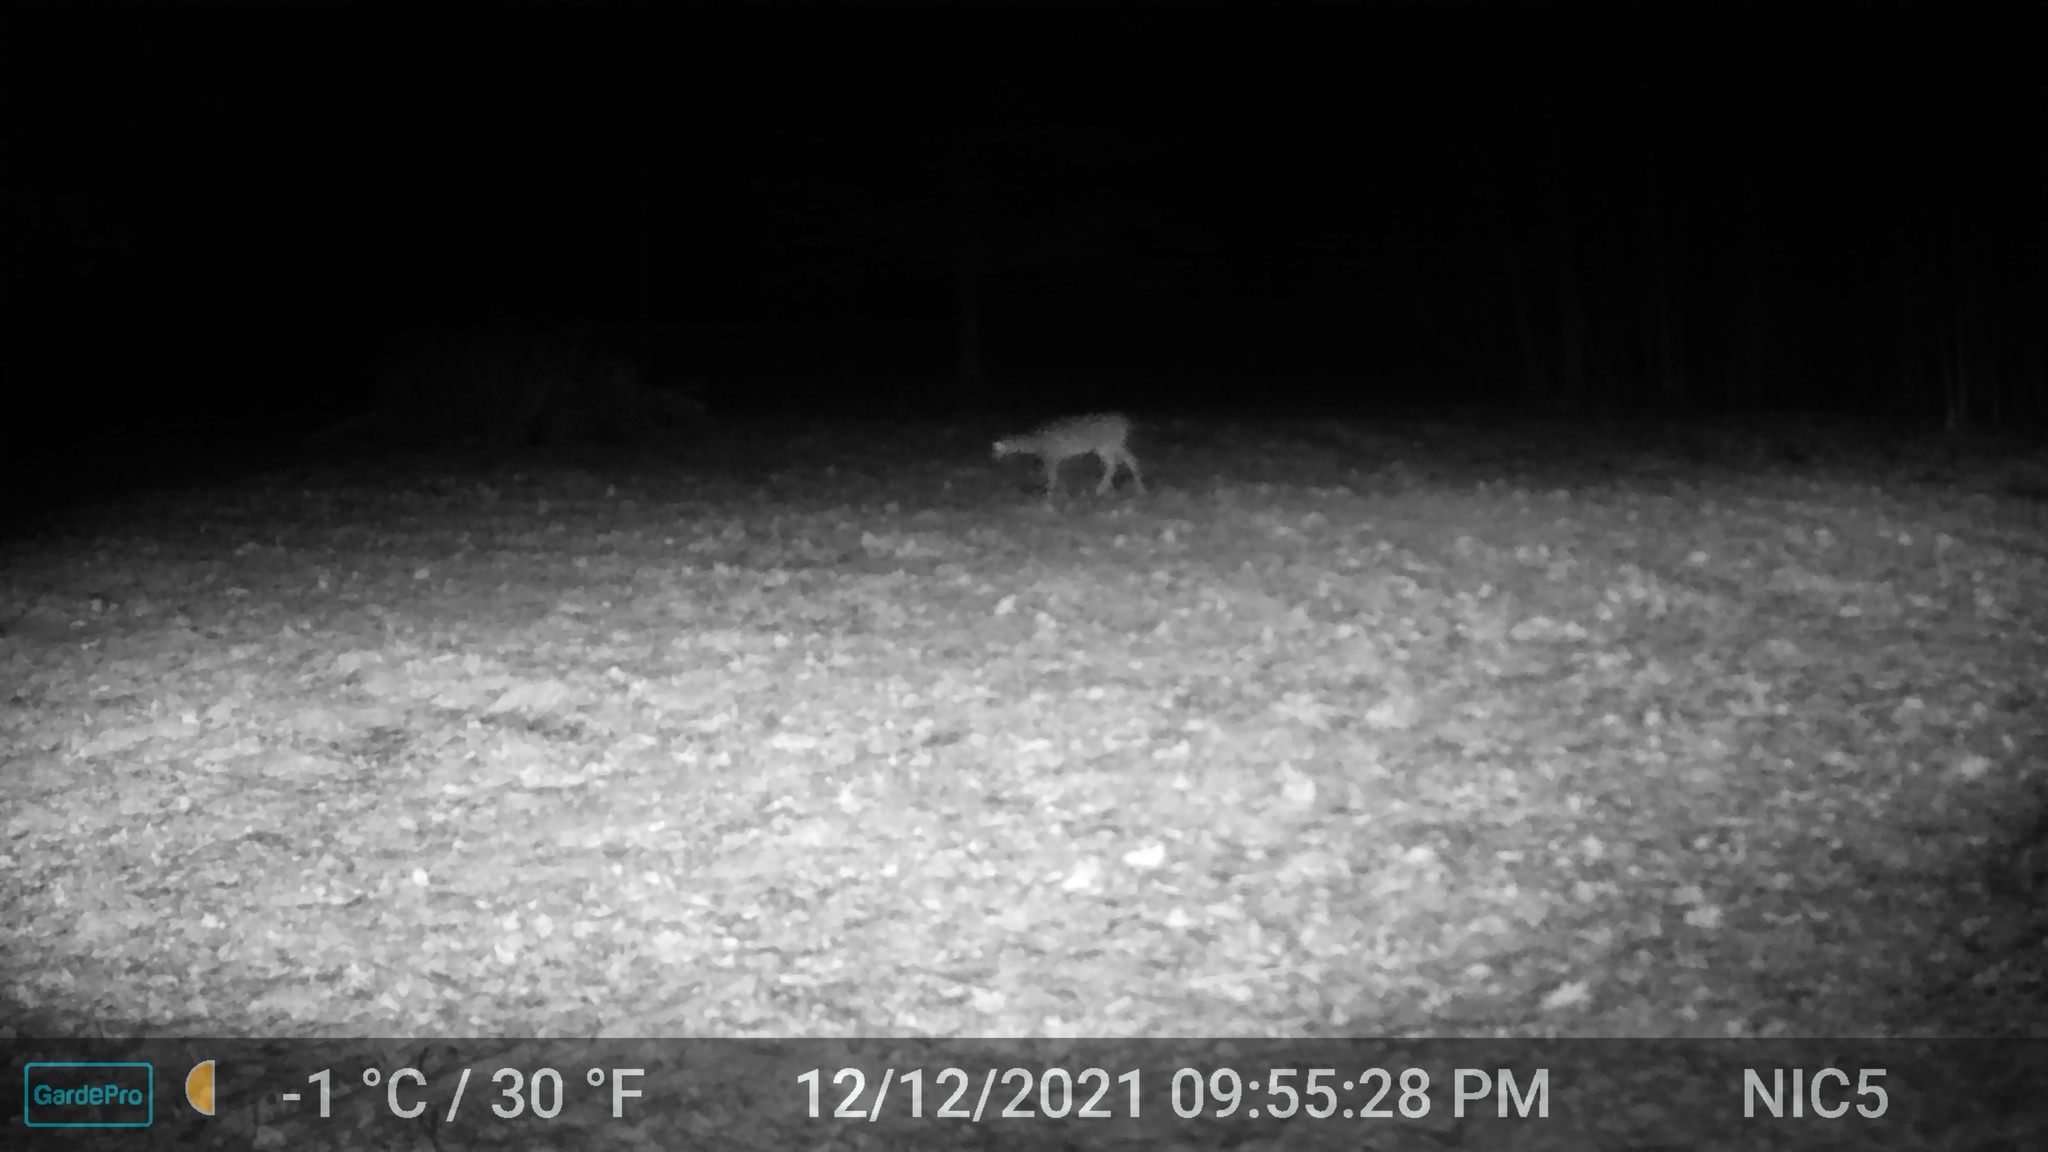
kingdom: Animalia
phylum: Chordata
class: Mammalia
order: Artiodactyla
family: Cervidae
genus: Odocoileus
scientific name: Odocoileus virginianus
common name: White-tailed deer
